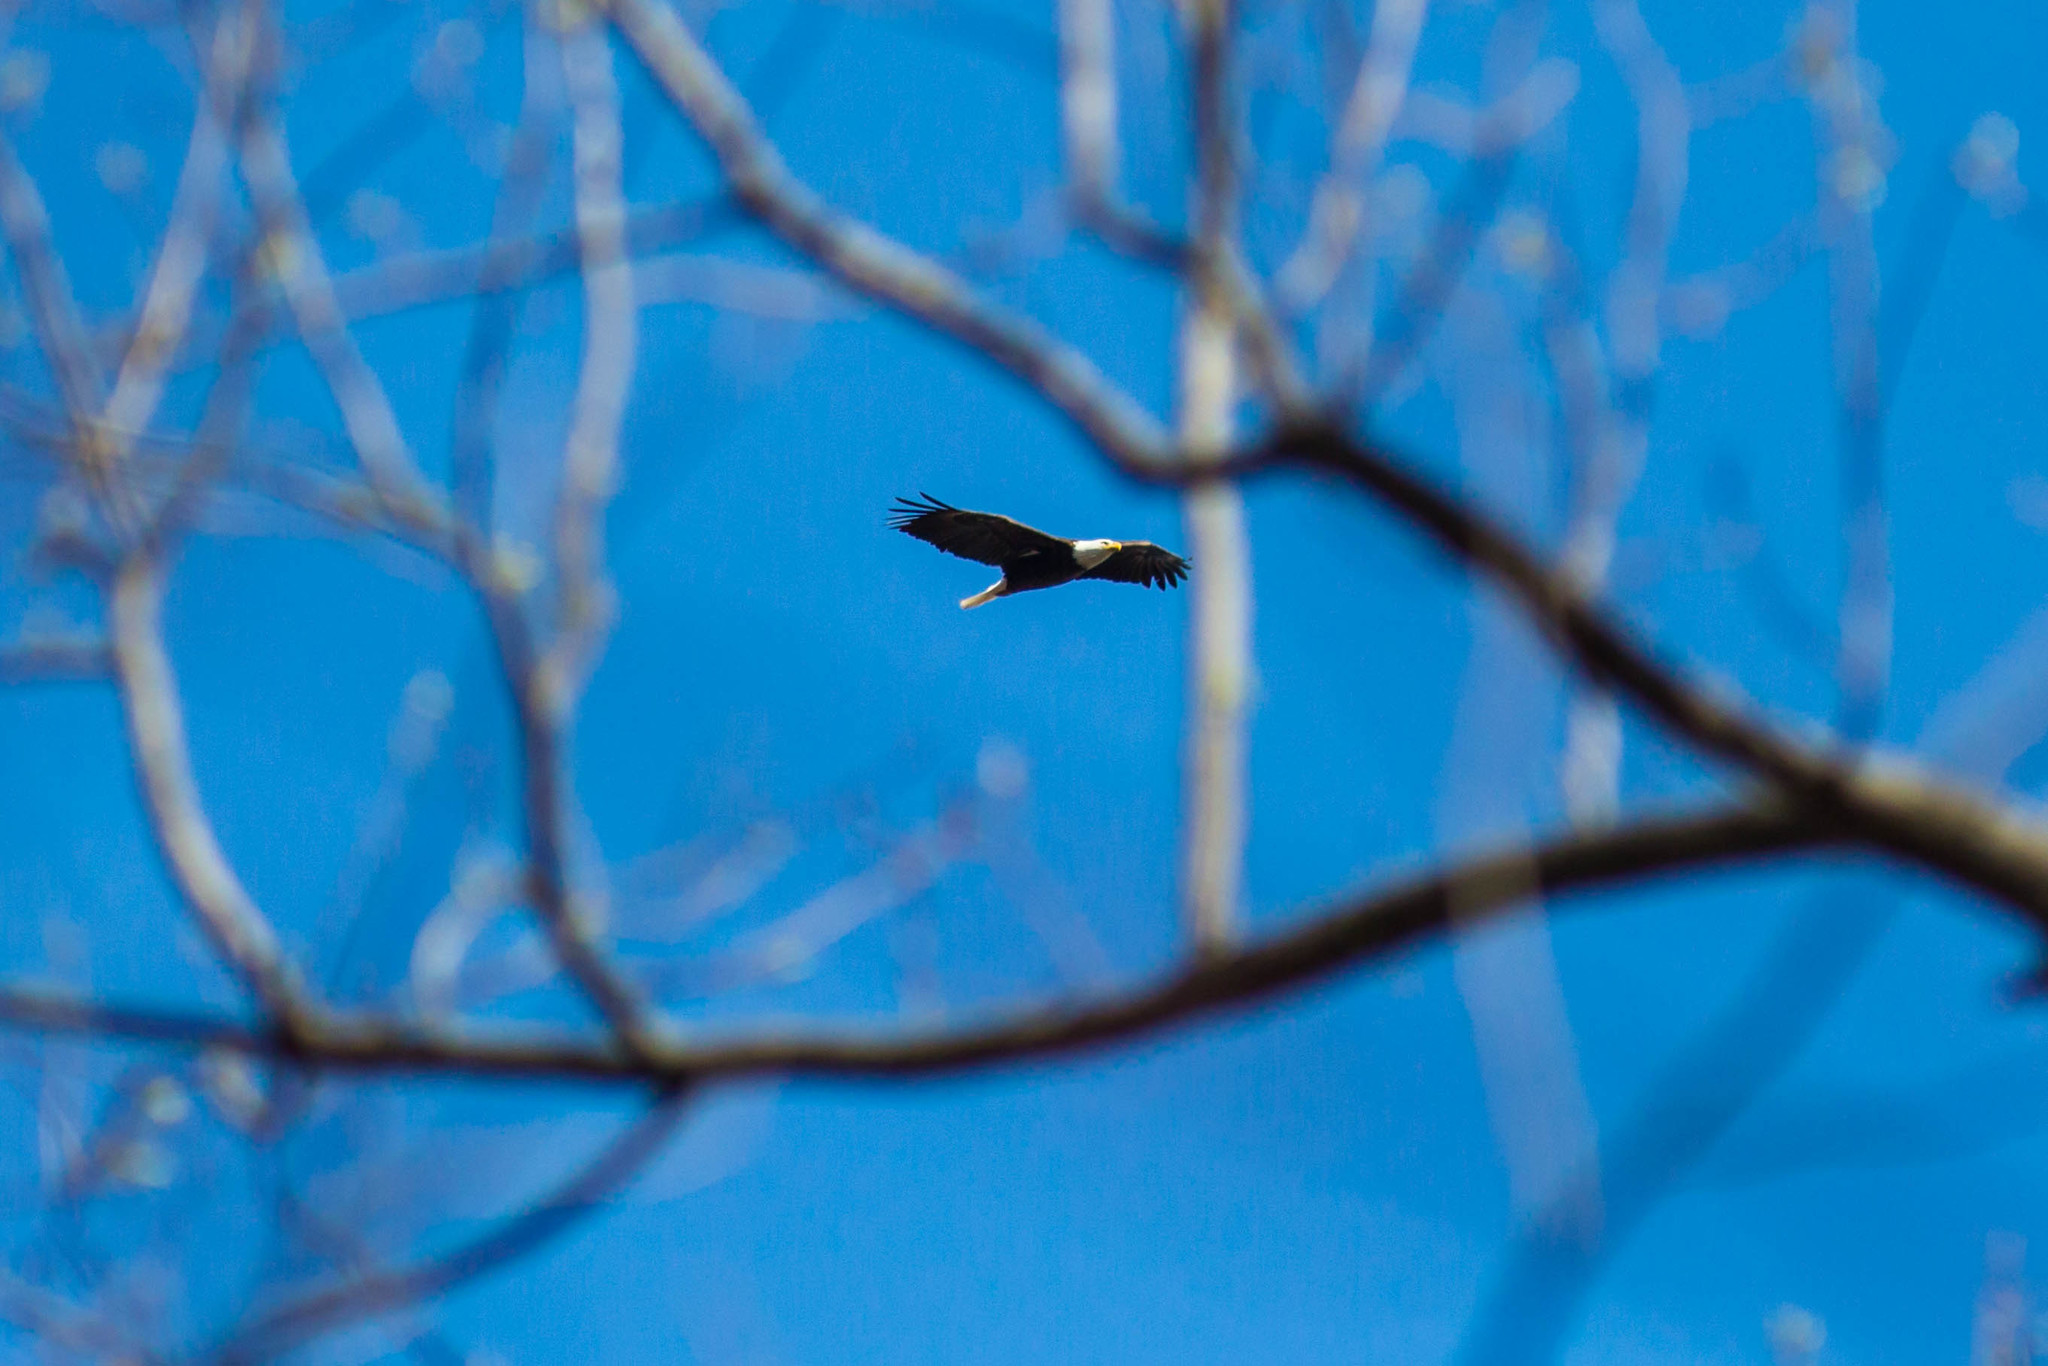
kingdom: Animalia
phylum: Chordata
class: Aves
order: Accipitriformes
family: Accipitridae
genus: Haliaeetus
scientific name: Haliaeetus leucocephalus
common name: Bald eagle
